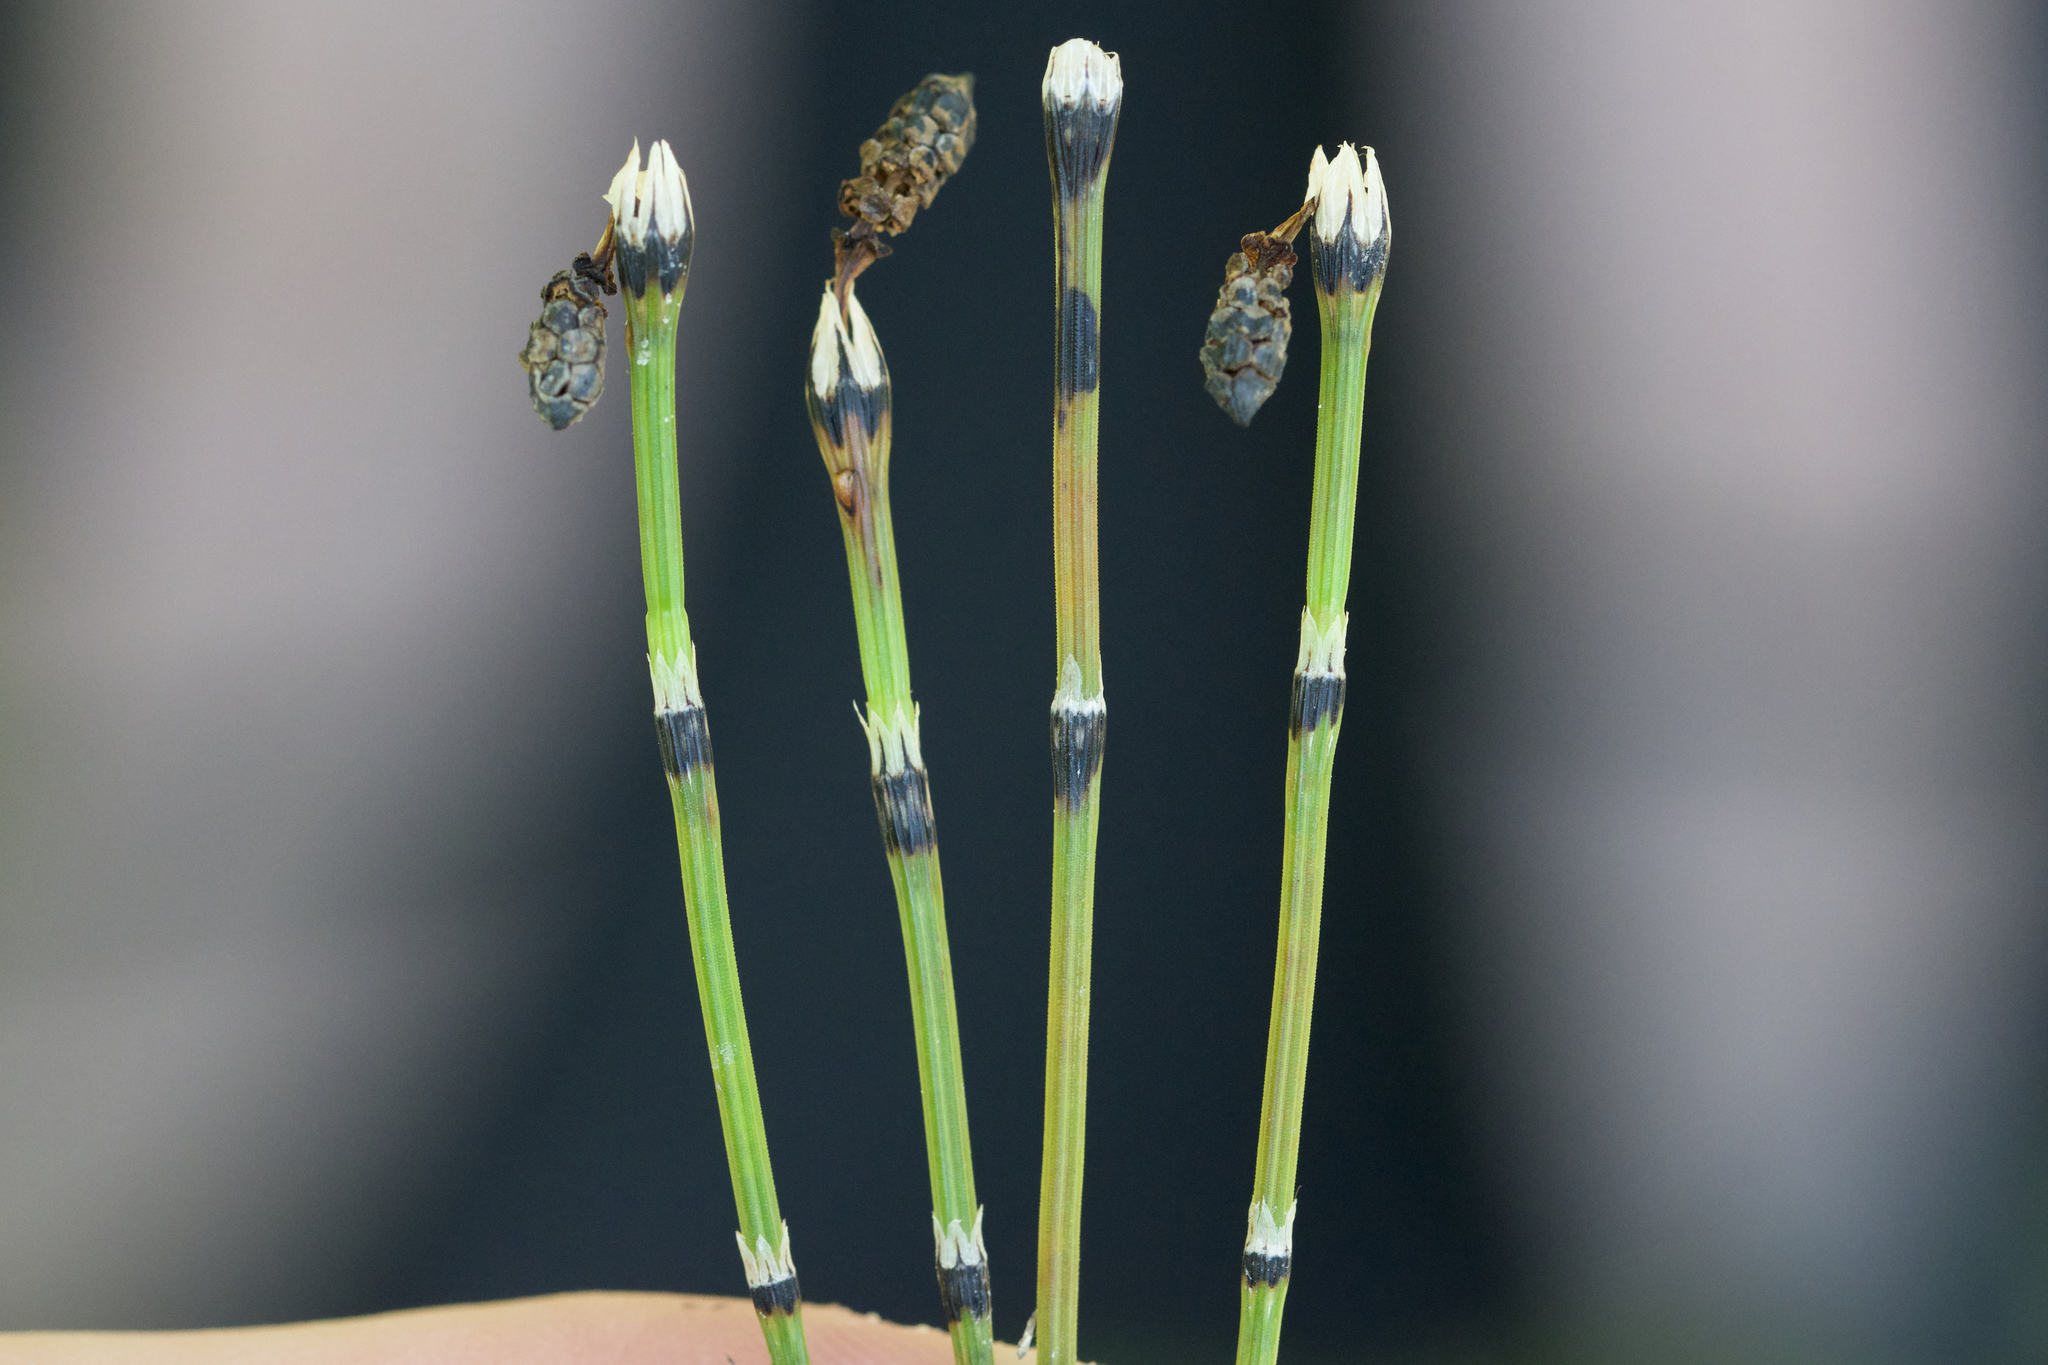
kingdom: Plantae
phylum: Tracheophyta
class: Polypodiopsida
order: Equisetales
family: Equisetaceae
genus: Equisetum
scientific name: Equisetum variegatum
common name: Variegated horsetail
